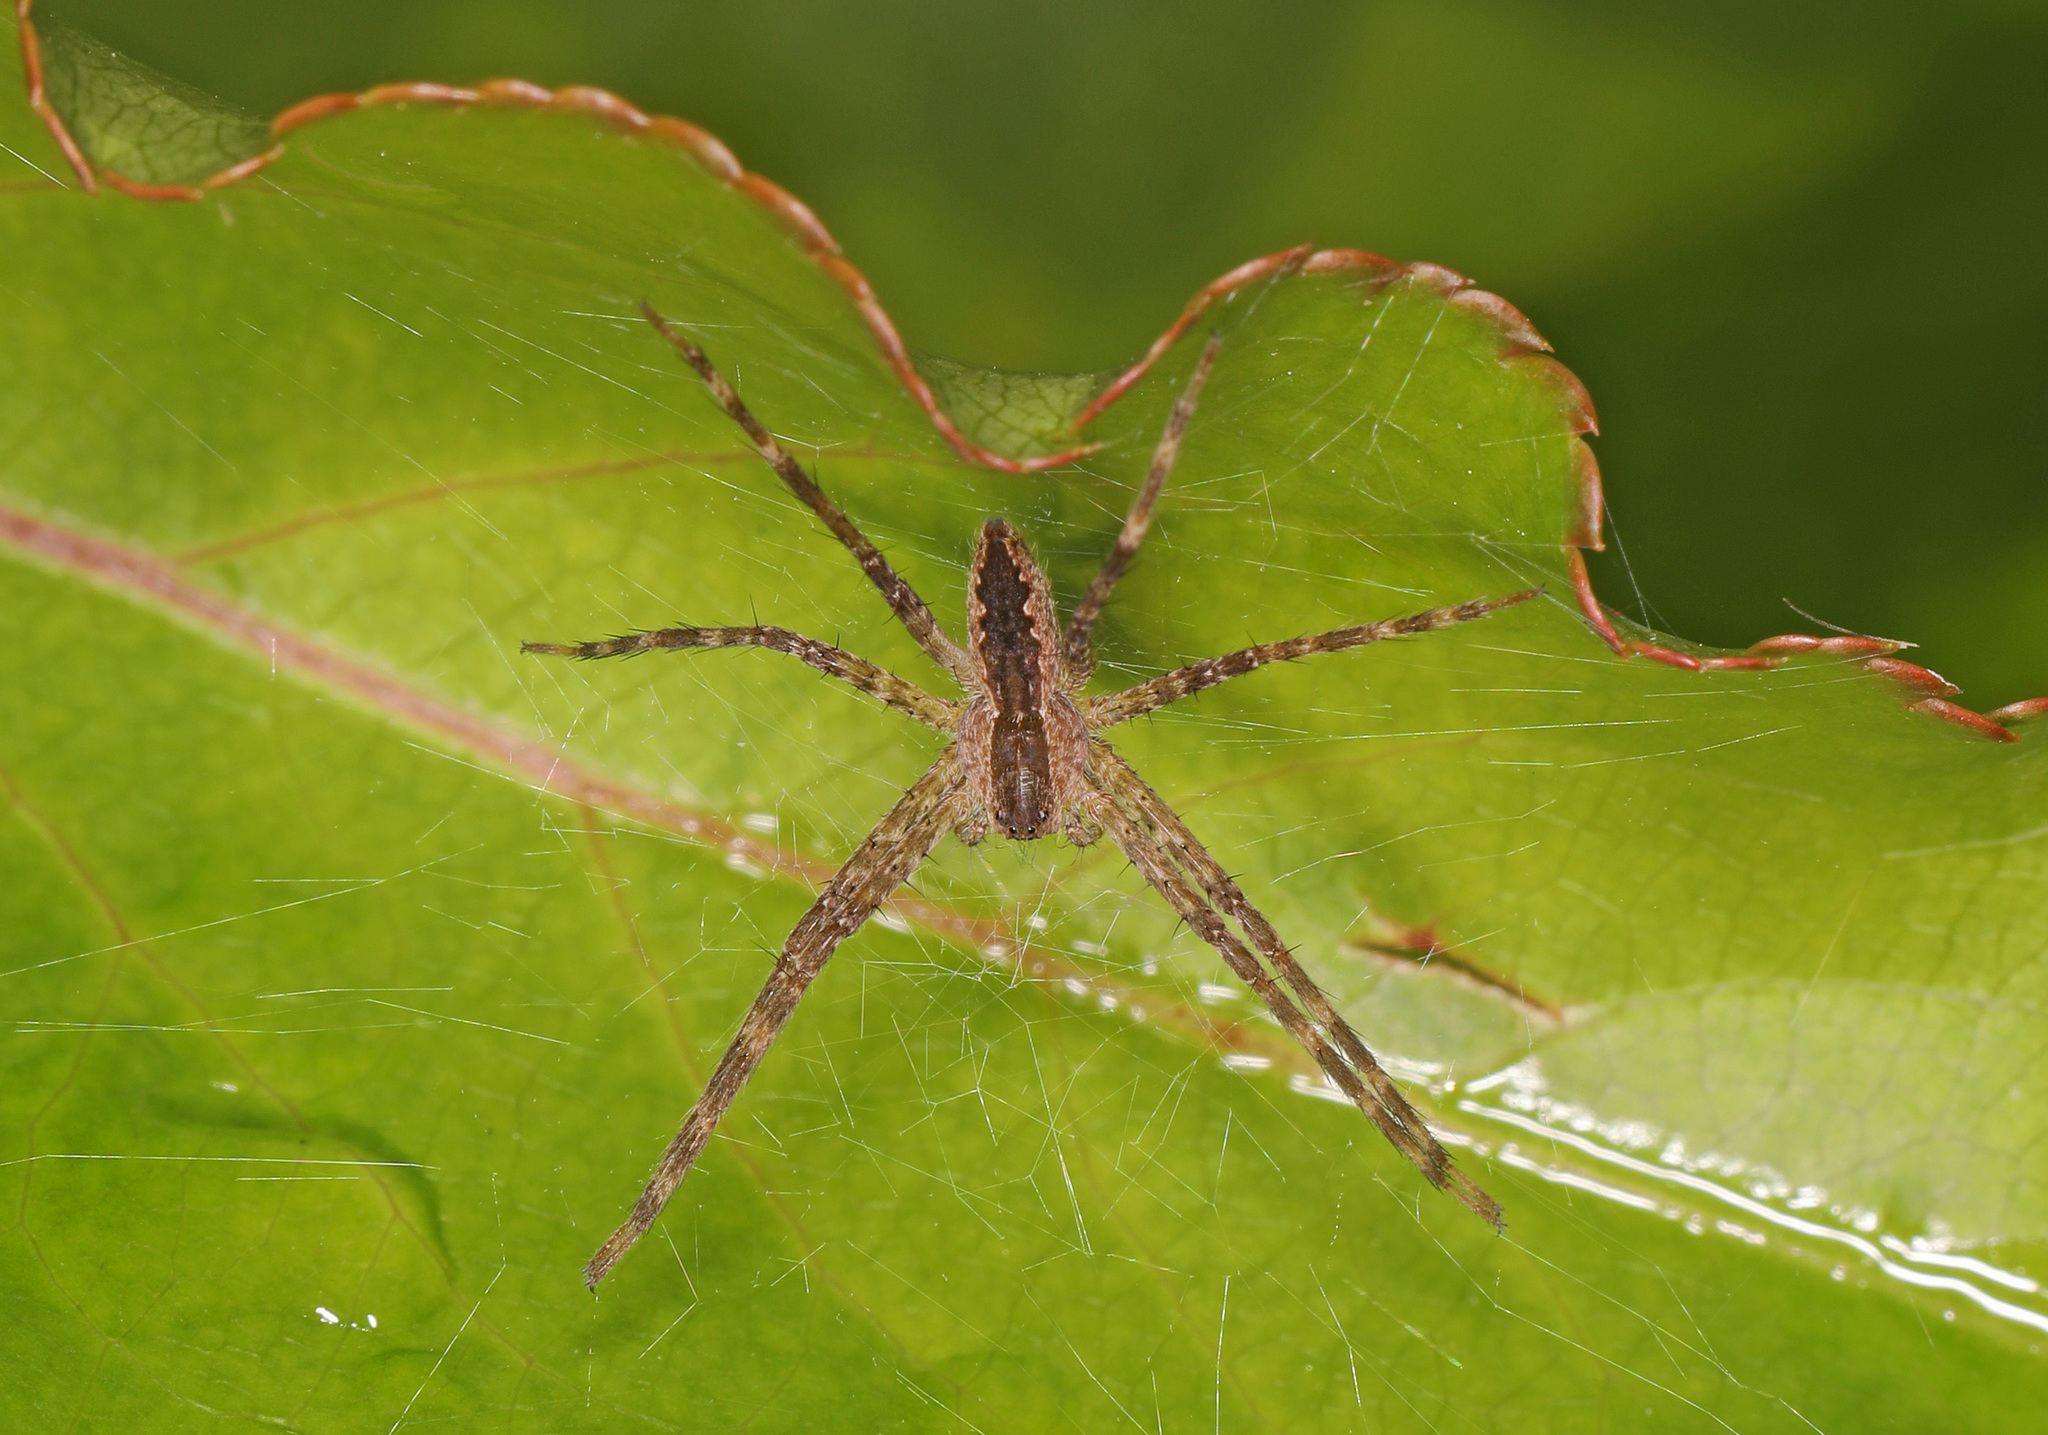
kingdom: Animalia
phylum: Arthropoda
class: Arachnida
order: Araneae
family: Pisauridae
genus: Pisaurina
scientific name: Pisaurina mira
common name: American nursery web spider
